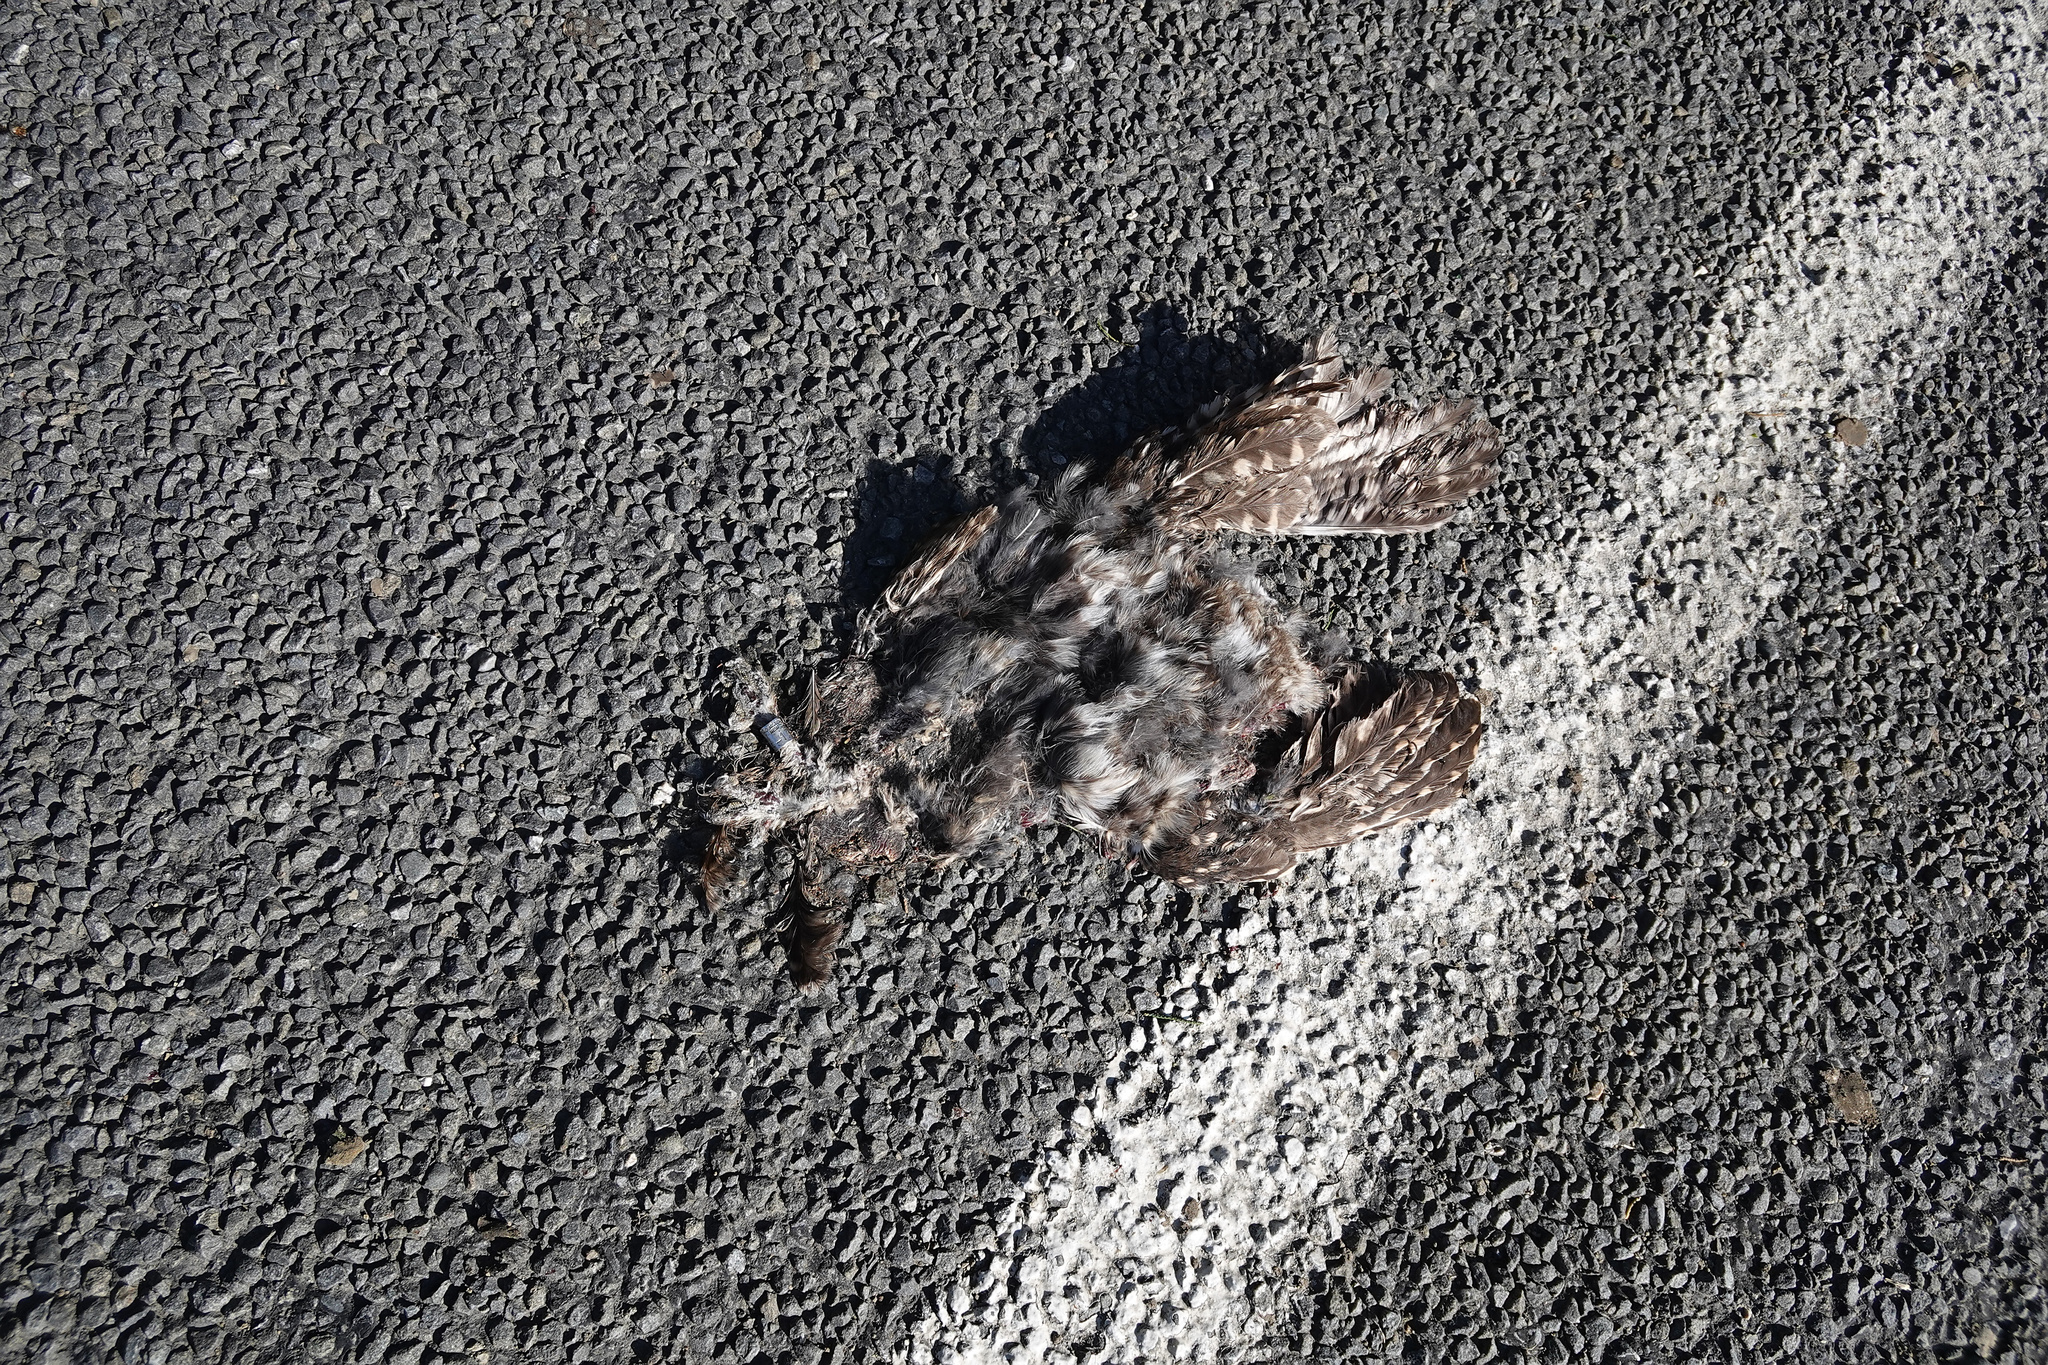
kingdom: Animalia
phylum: Chordata
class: Aves
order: Strigiformes
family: Strigidae
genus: Athene
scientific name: Athene noctua
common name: Little owl
